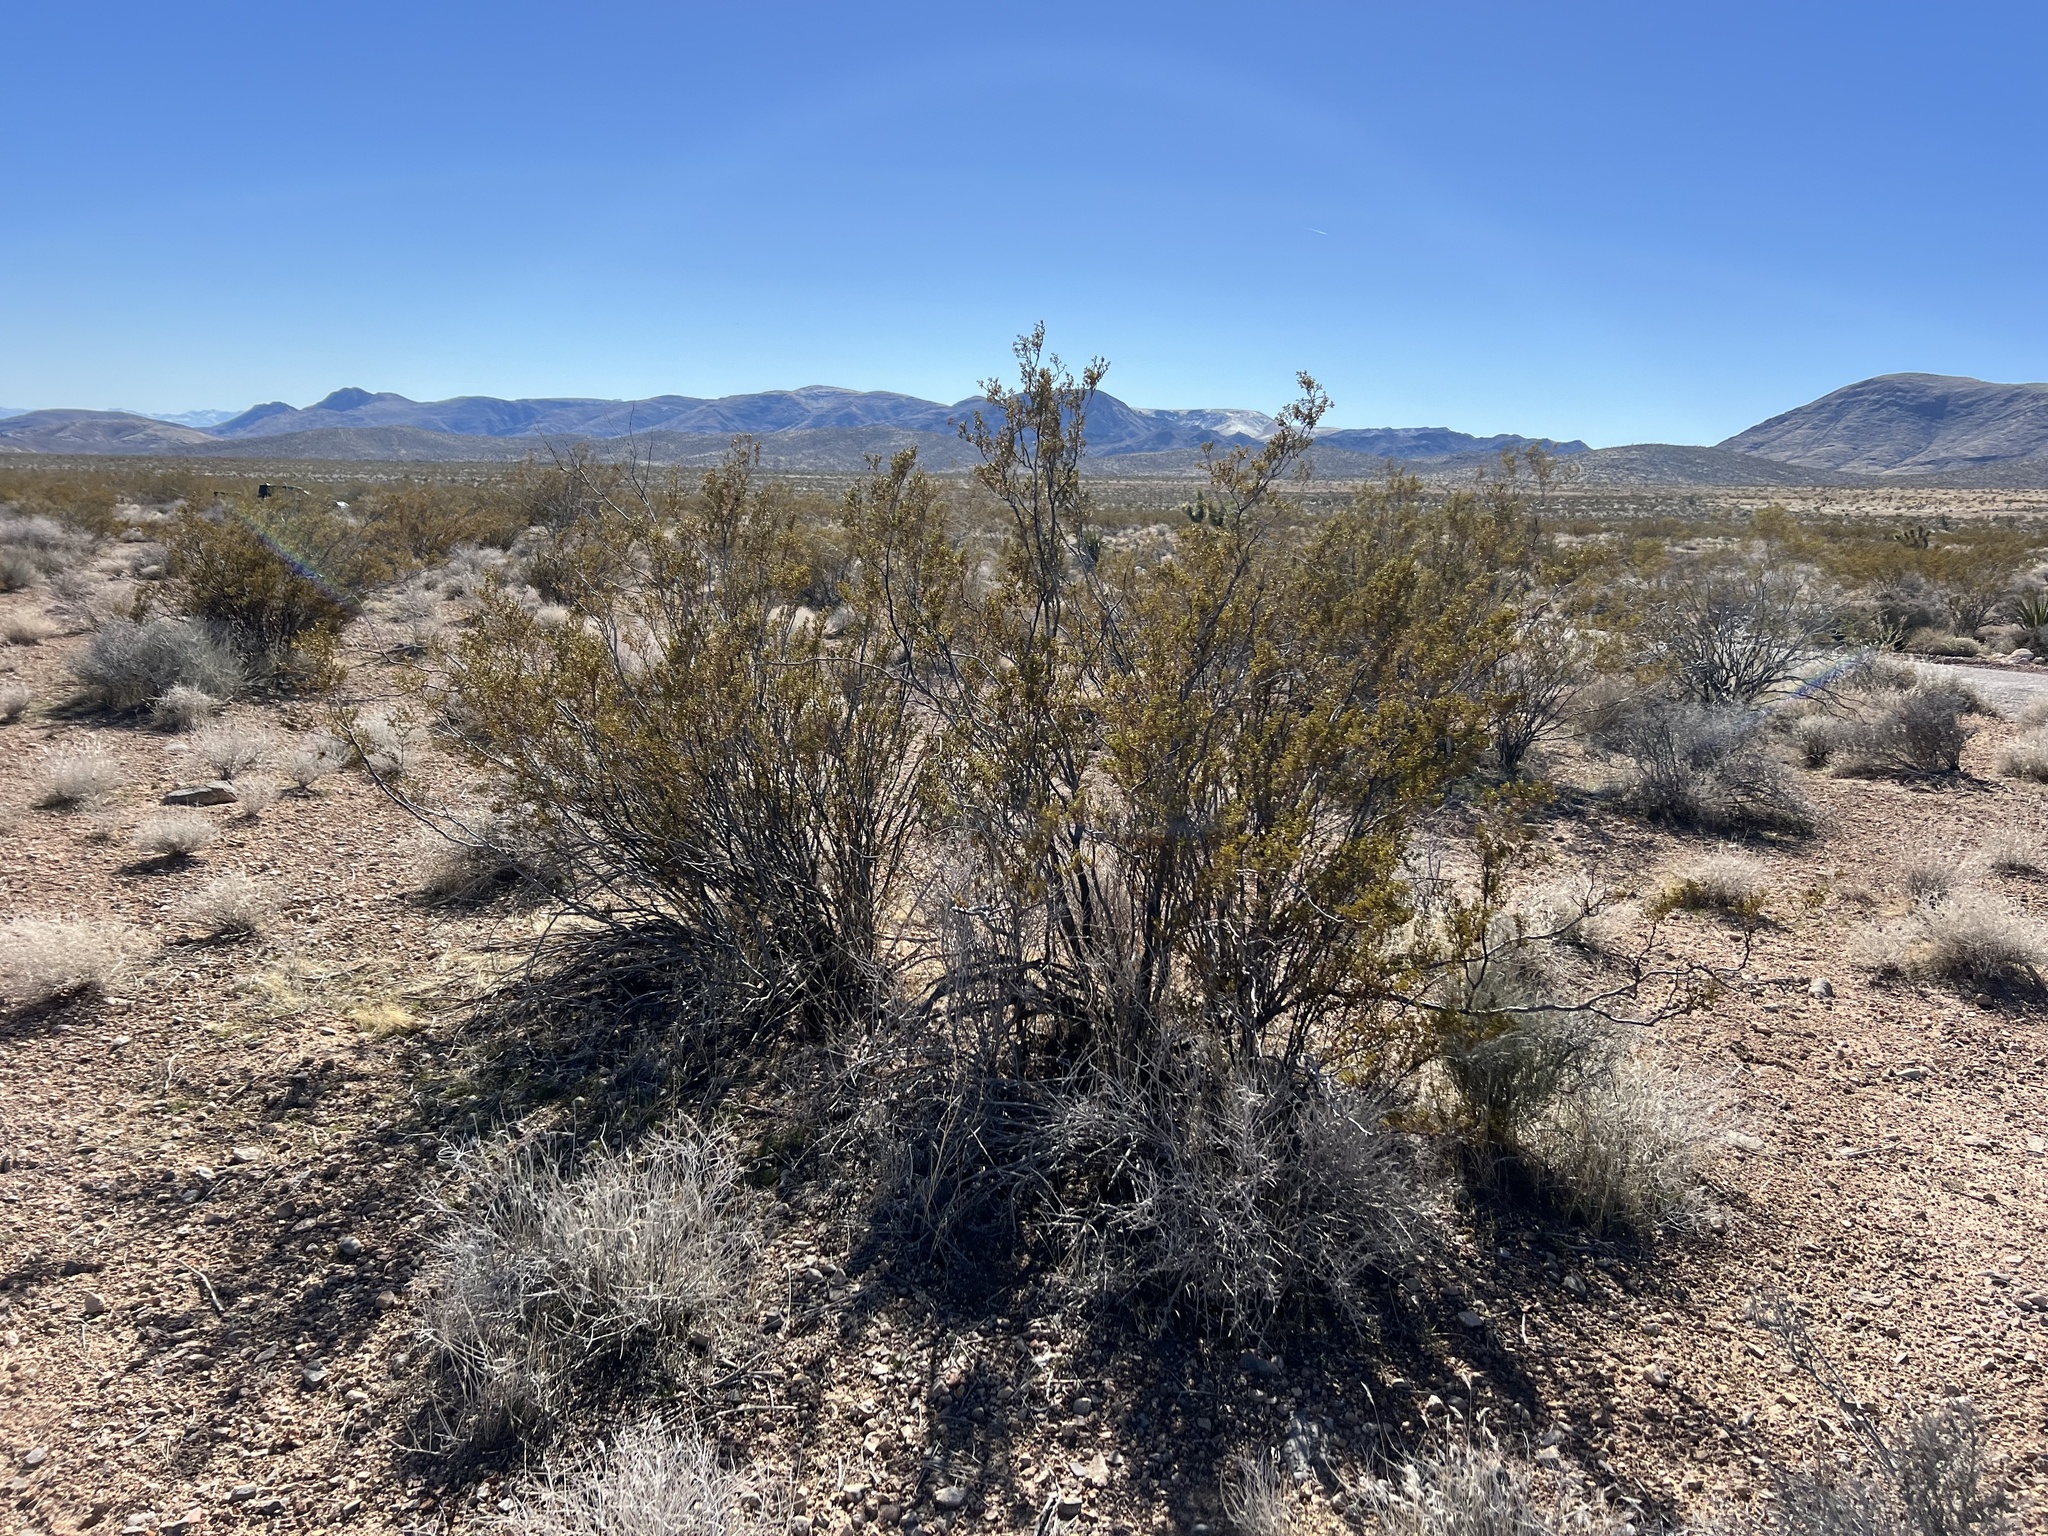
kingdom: Plantae
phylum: Tracheophyta
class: Magnoliopsida
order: Zygophyllales
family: Zygophyllaceae
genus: Larrea
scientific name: Larrea tridentata
